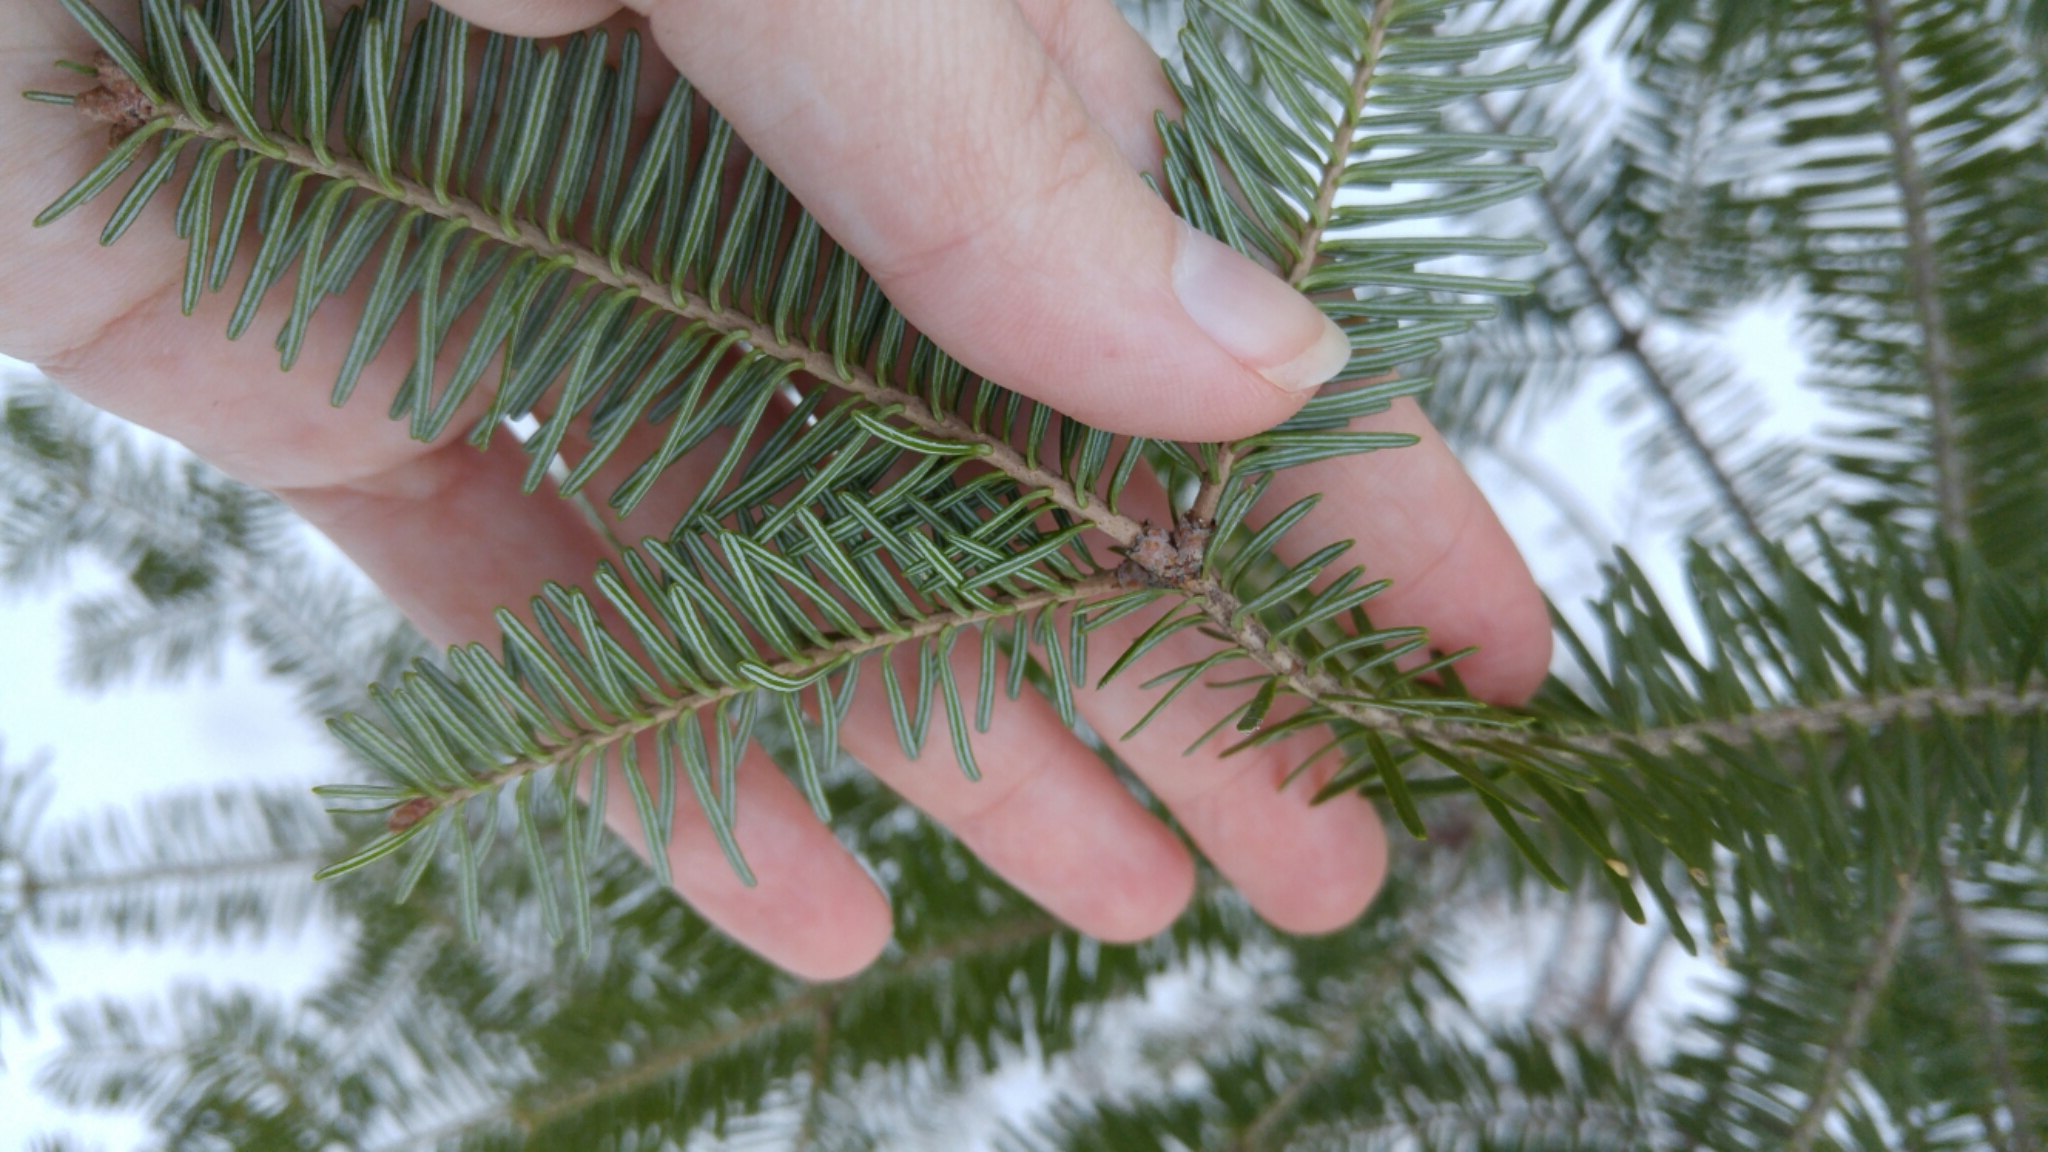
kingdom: Plantae
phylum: Tracheophyta
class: Pinopsida
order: Pinales
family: Pinaceae
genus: Abies
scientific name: Abies balsamea
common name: Balsam fir
